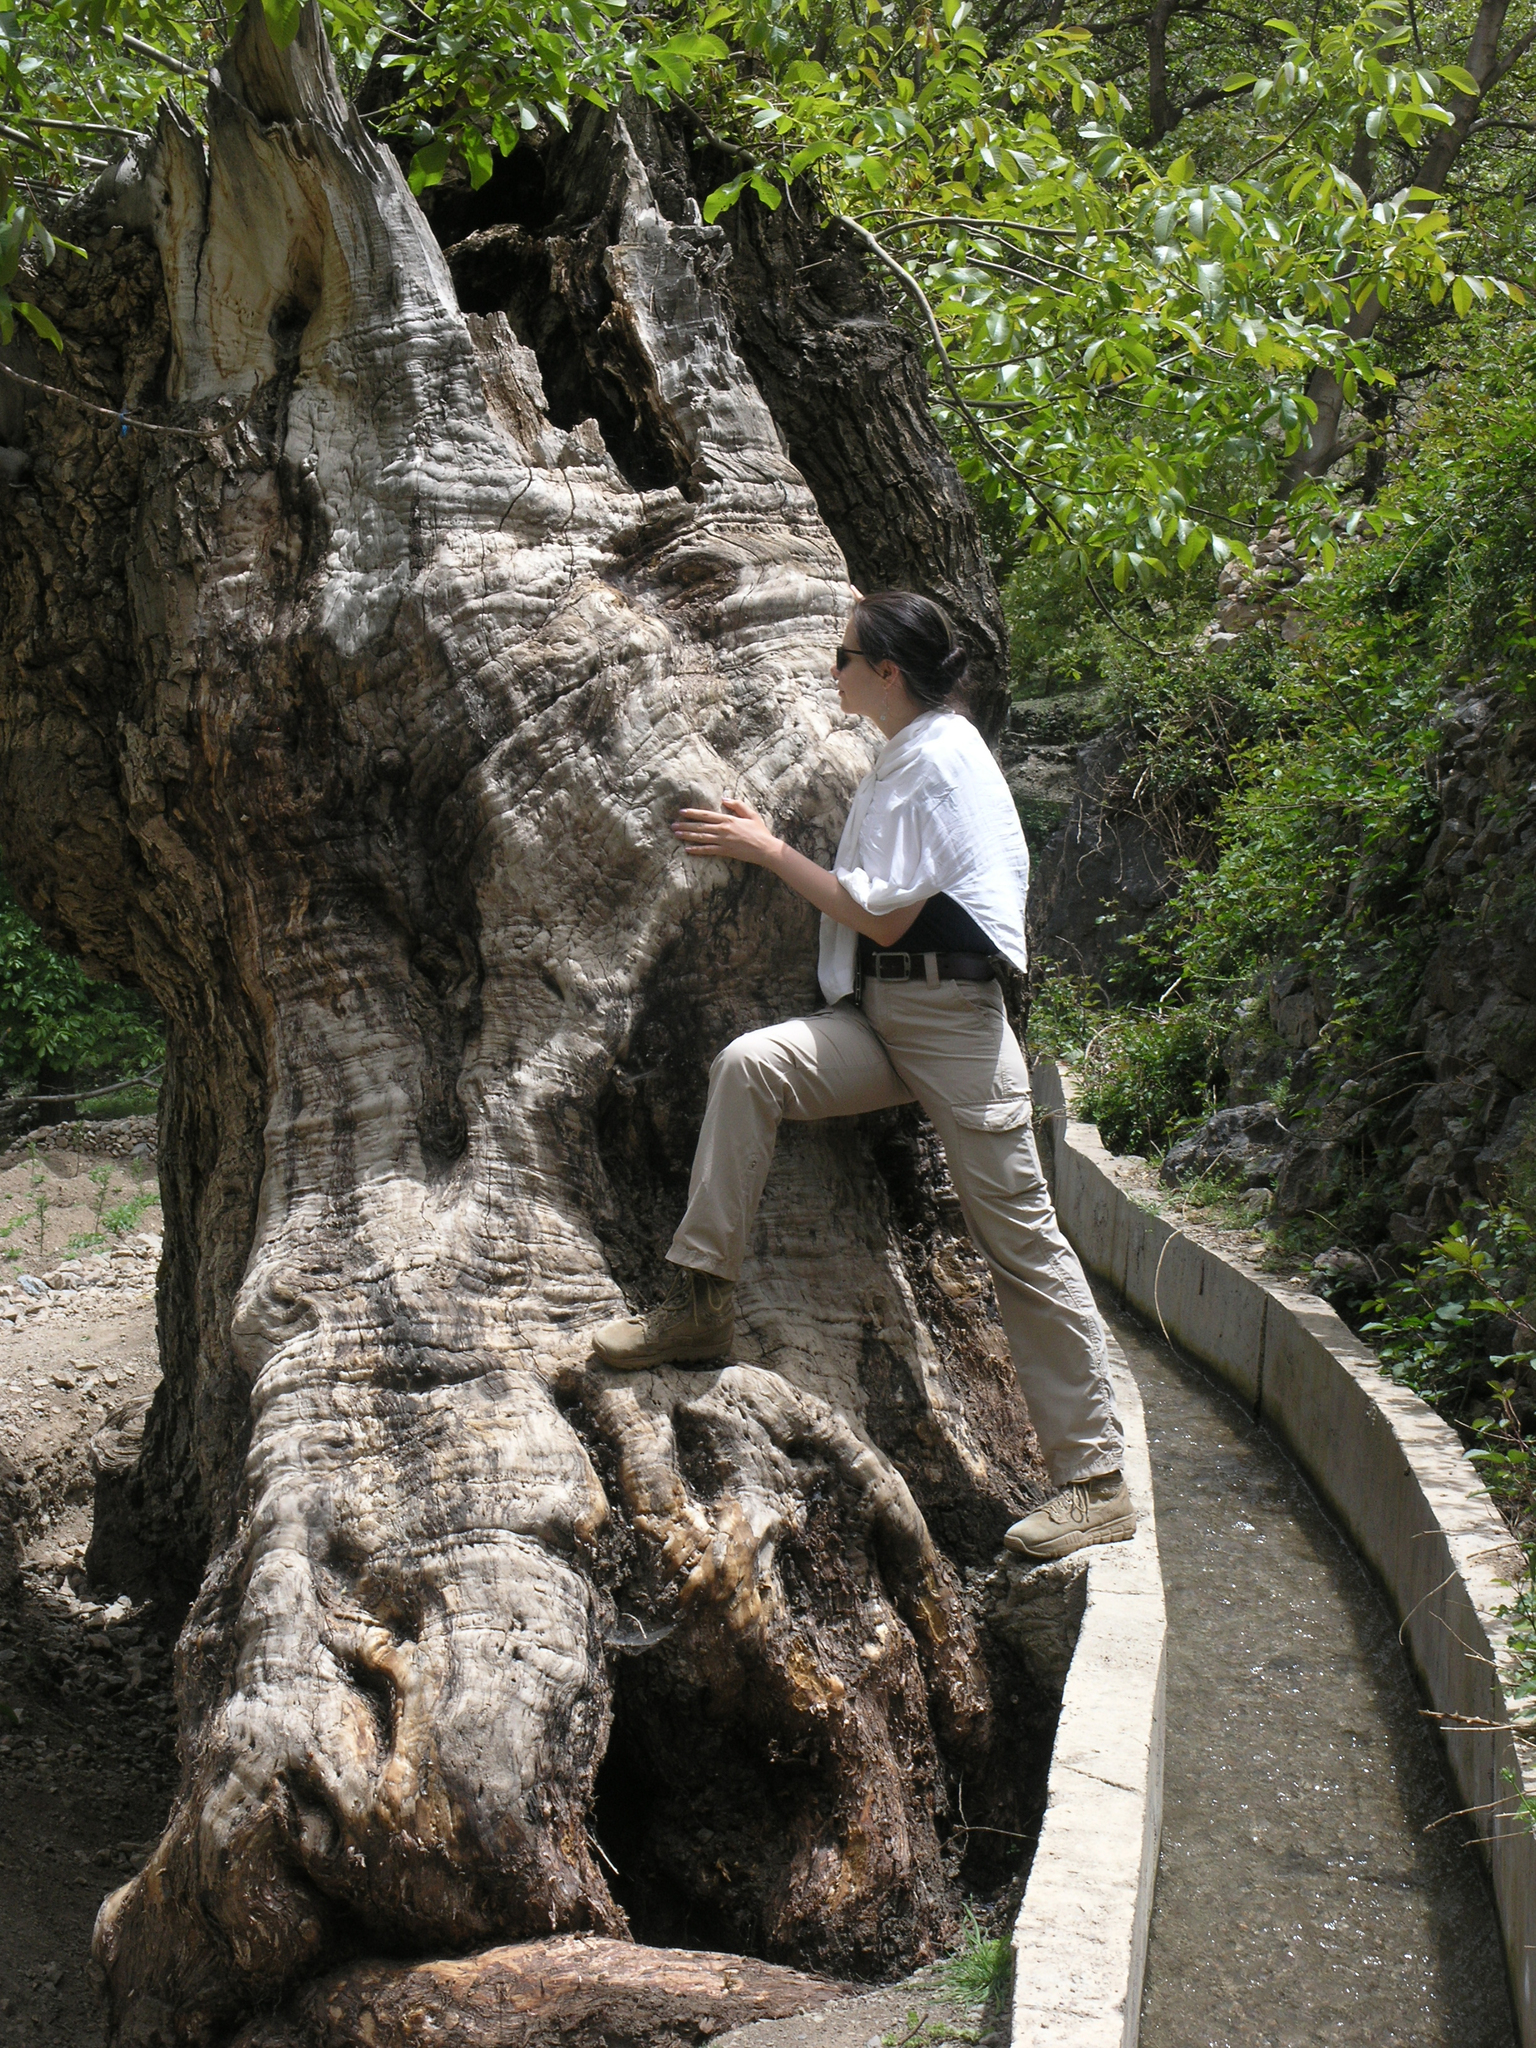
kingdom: Plantae
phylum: Tracheophyta
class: Magnoliopsida
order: Fagales
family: Juglandaceae
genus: Juglans
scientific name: Juglans regia
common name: Walnut
